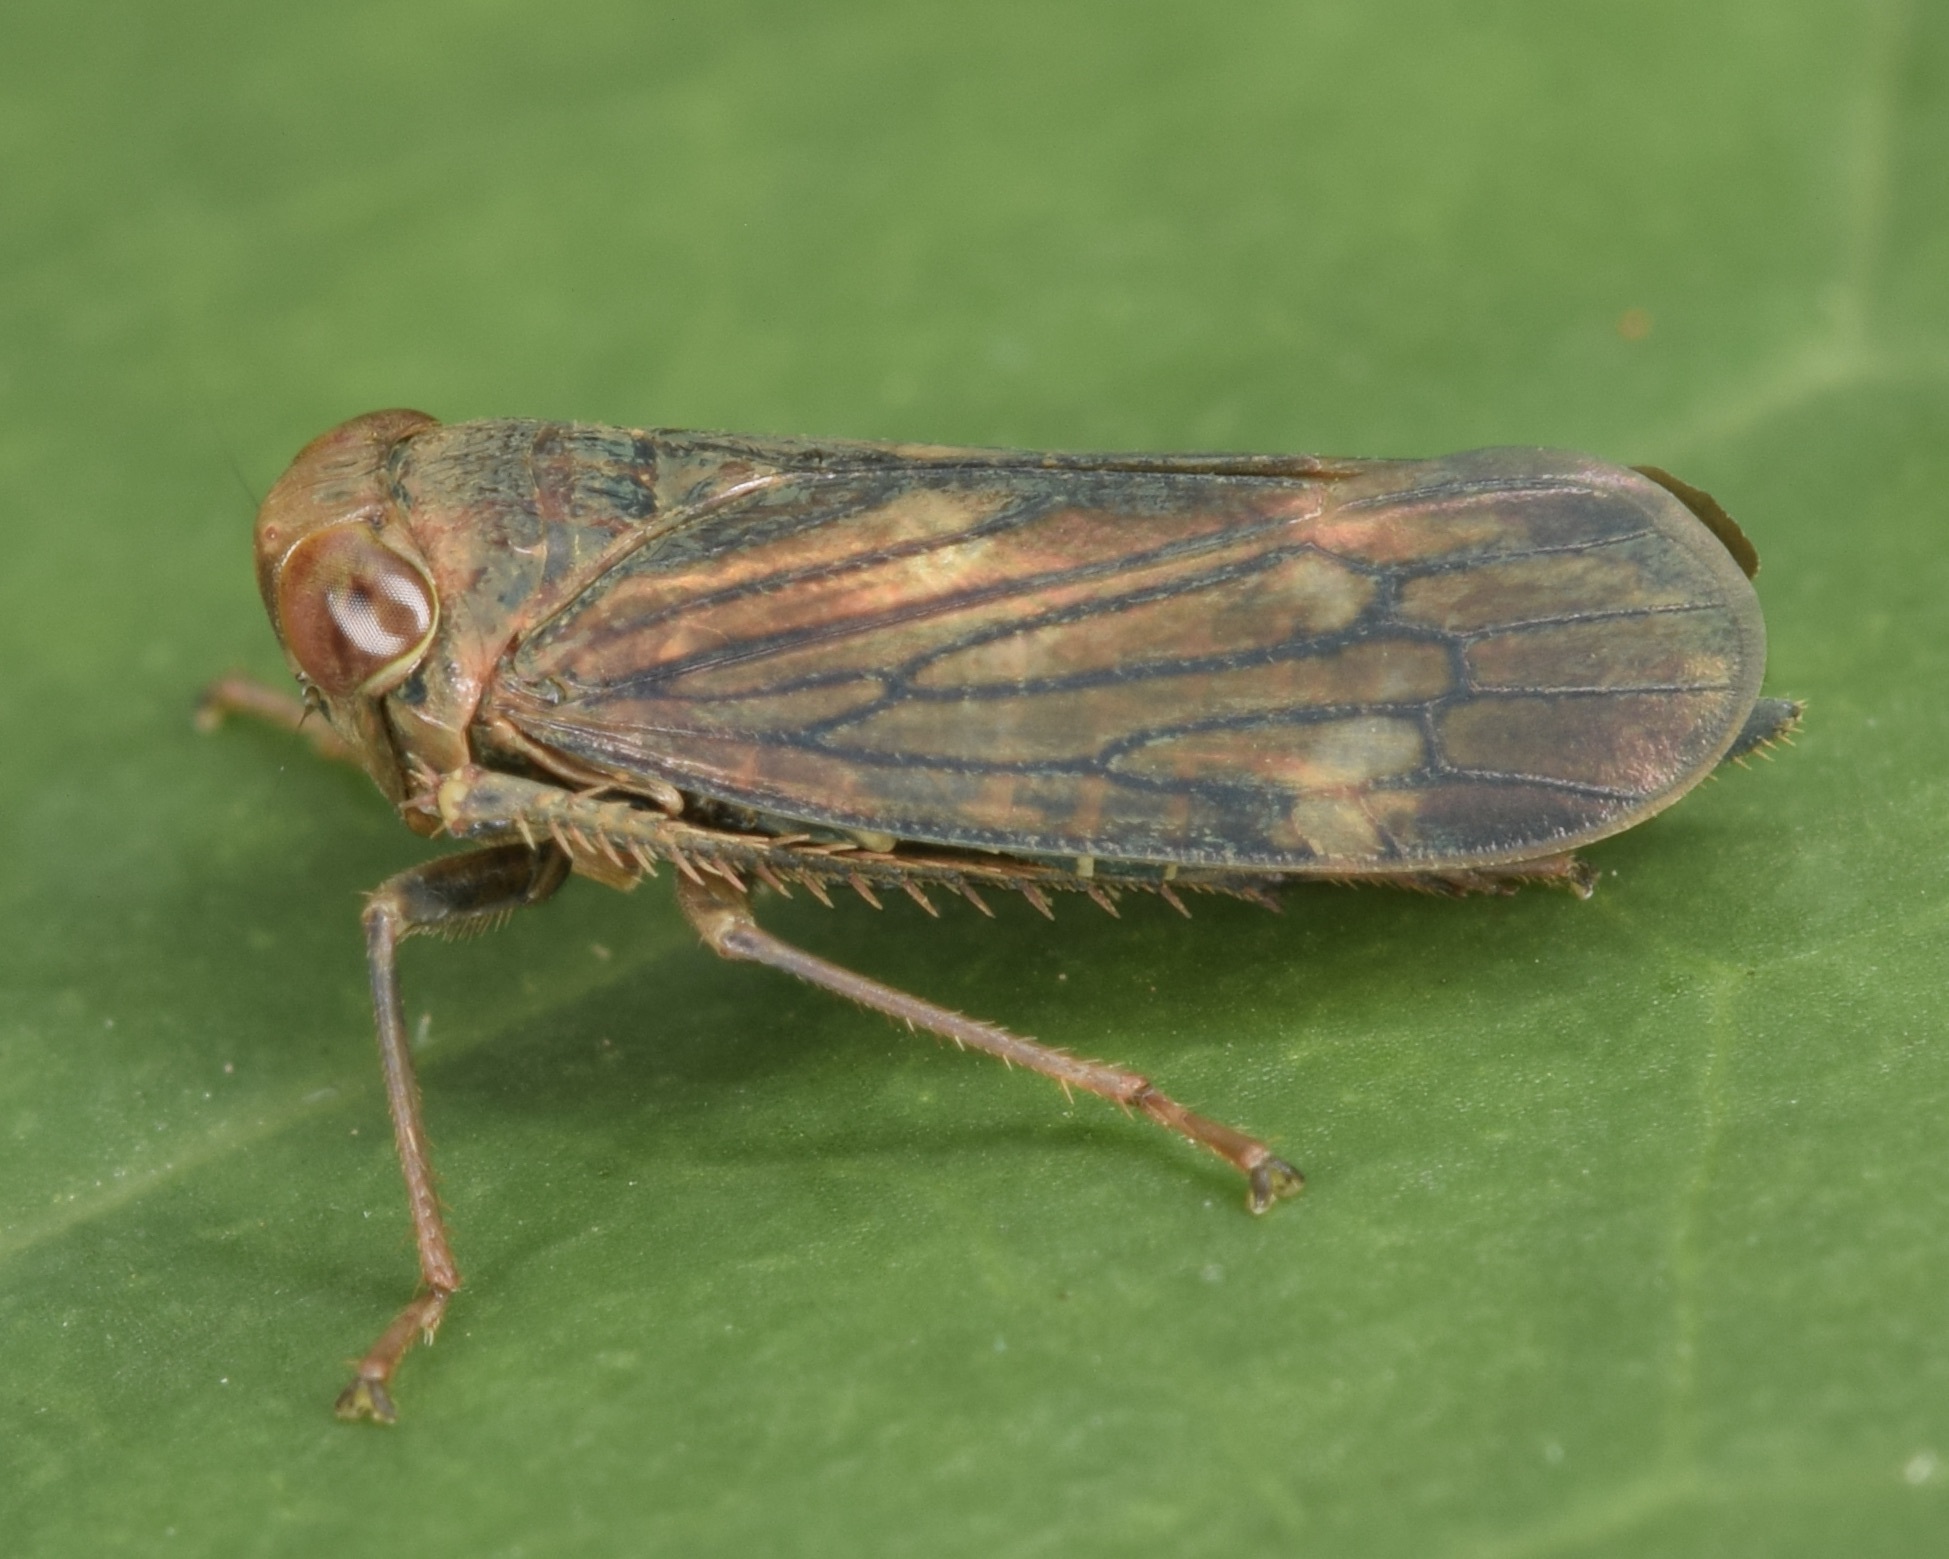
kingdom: Animalia
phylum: Arthropoda
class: Insecta
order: Hemiptera
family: Cicadellidae
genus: Jikradia
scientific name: Jikradia olitoria
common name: Coppery leafhopper
